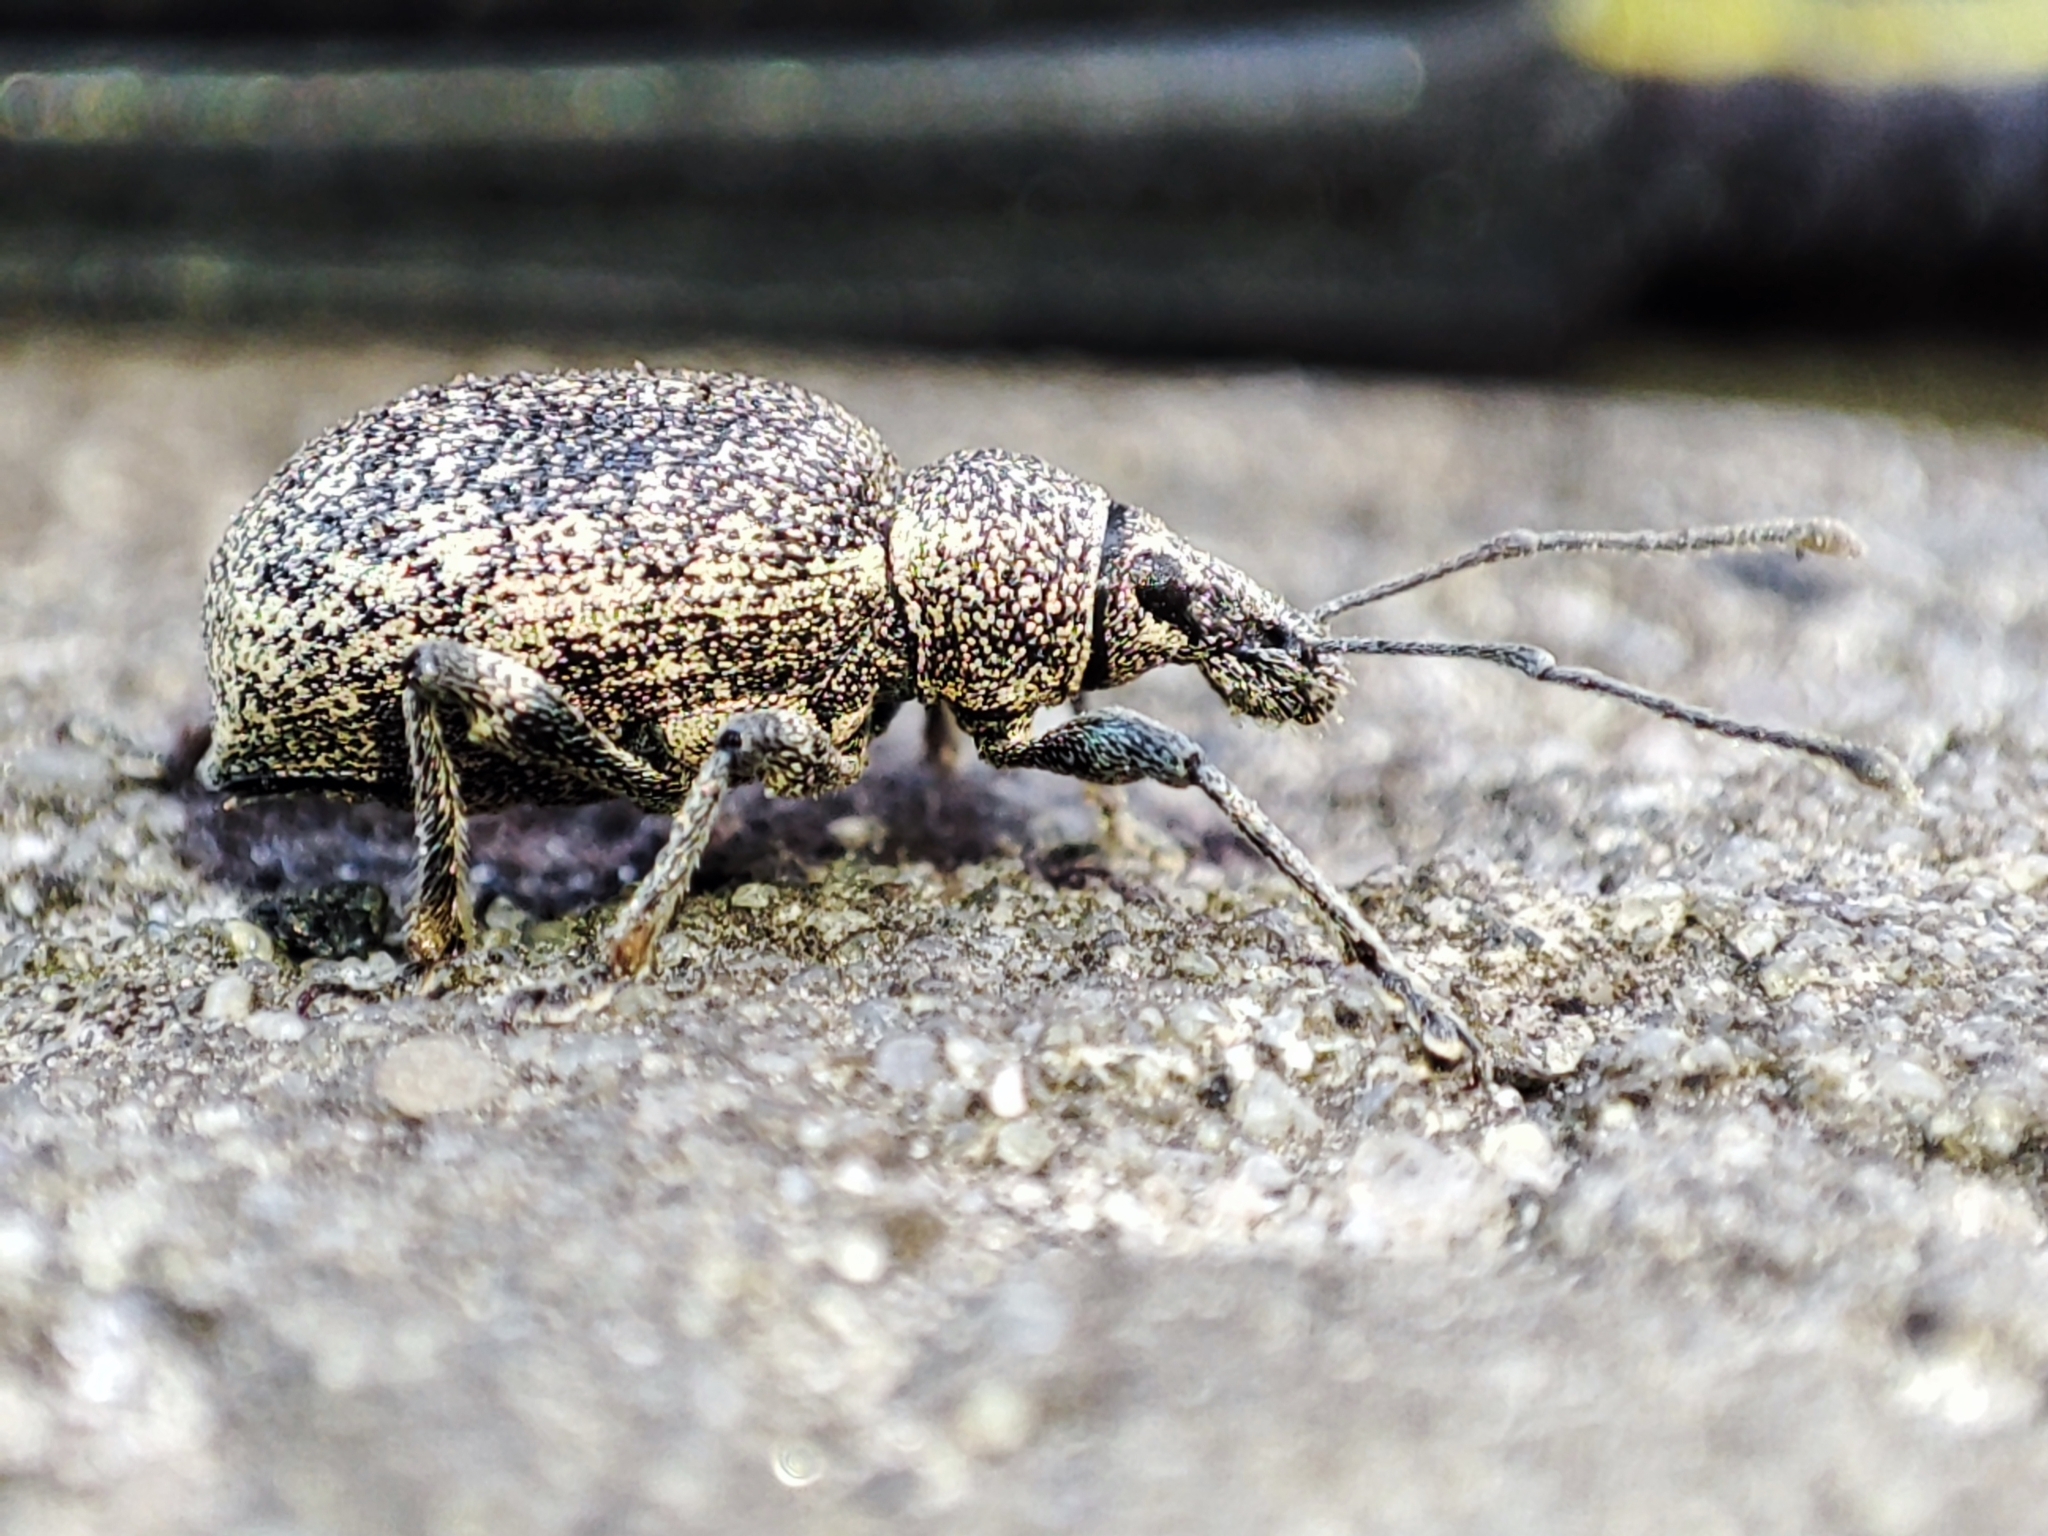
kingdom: Animalia
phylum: Arthropoda
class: Insecta
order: Coleoptera
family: Curculionidae
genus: Otiorhynchus
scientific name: Otiorhynchus aurosparsus
